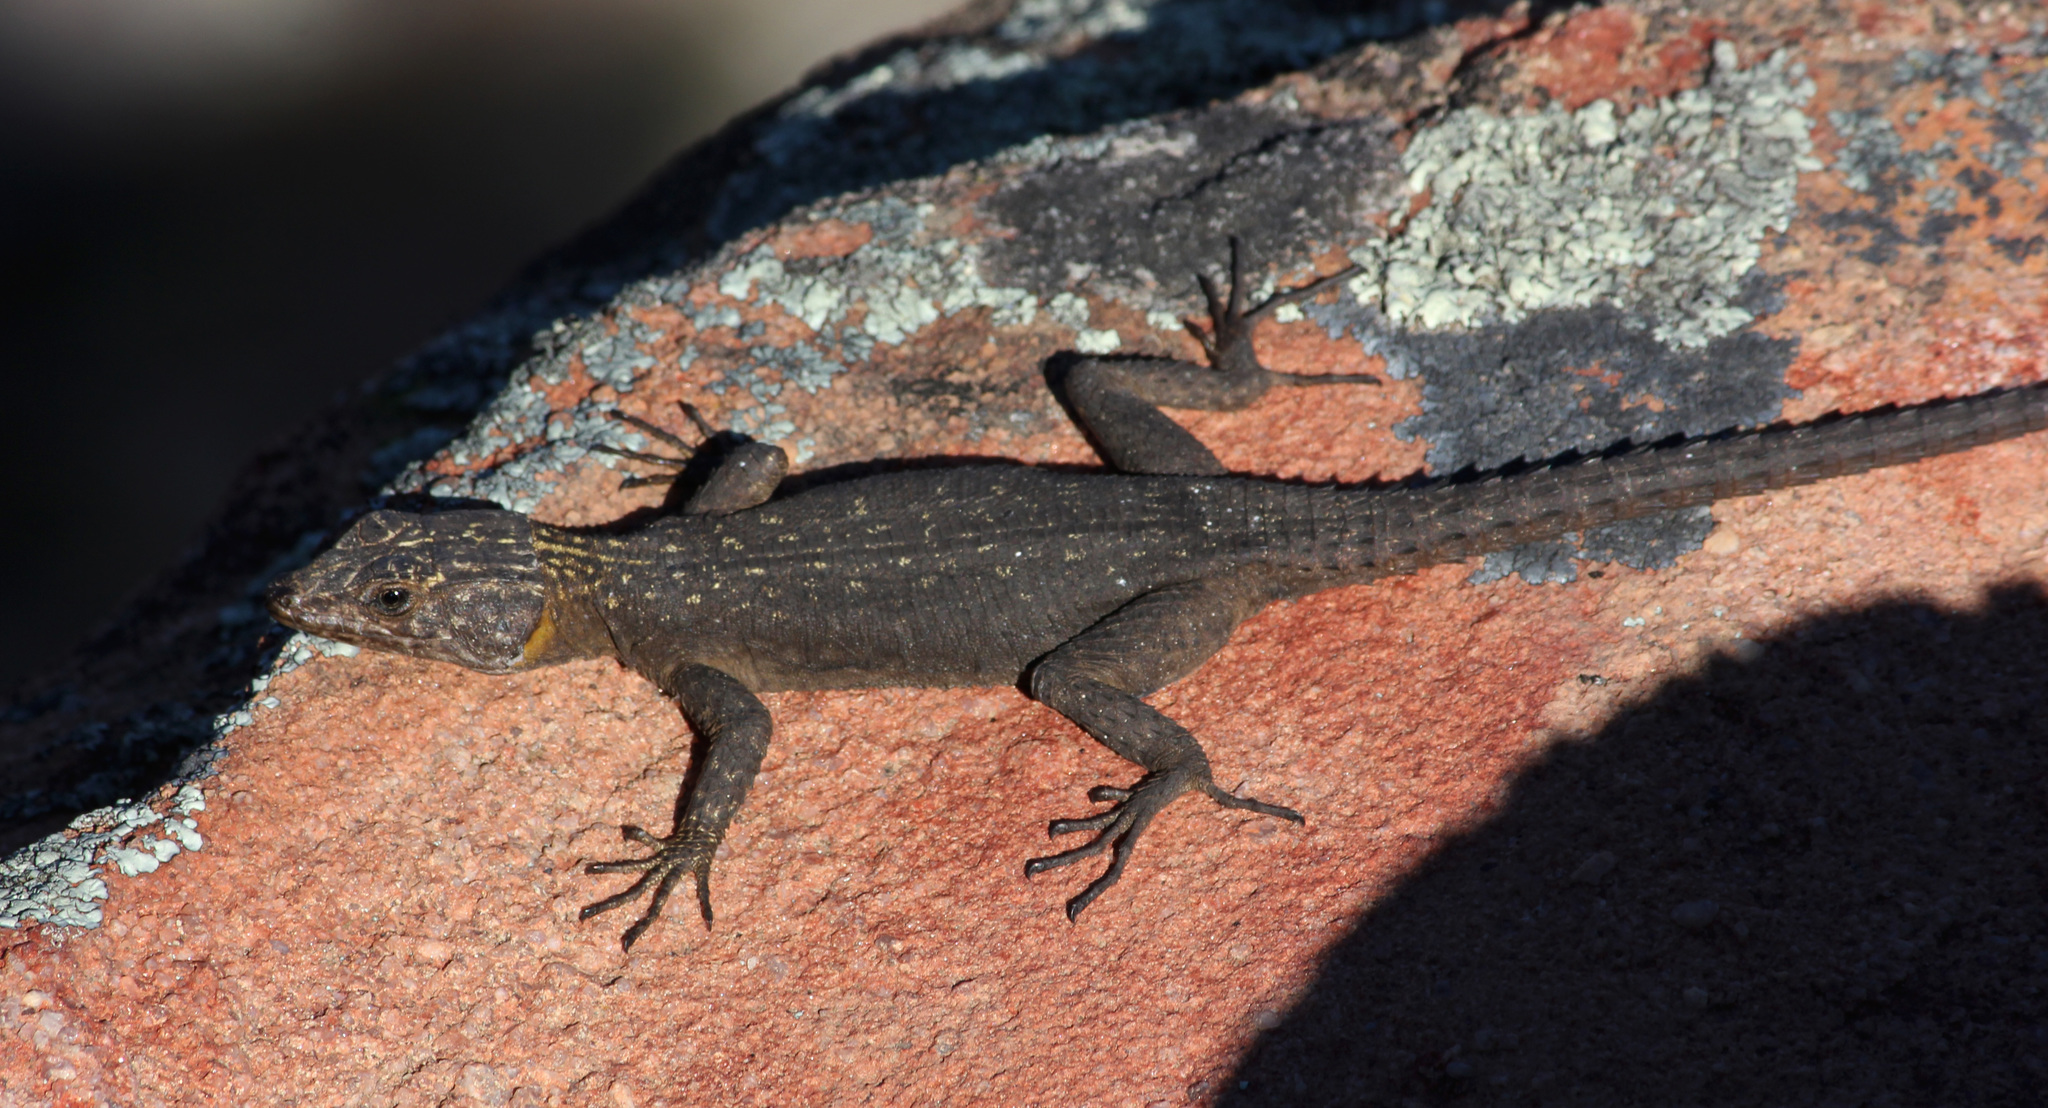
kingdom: Animalia
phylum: Chordata
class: Squamata
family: Cordylidae
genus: Hemicordylus
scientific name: Hemicordylus capensis
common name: Graceful crag lizard
